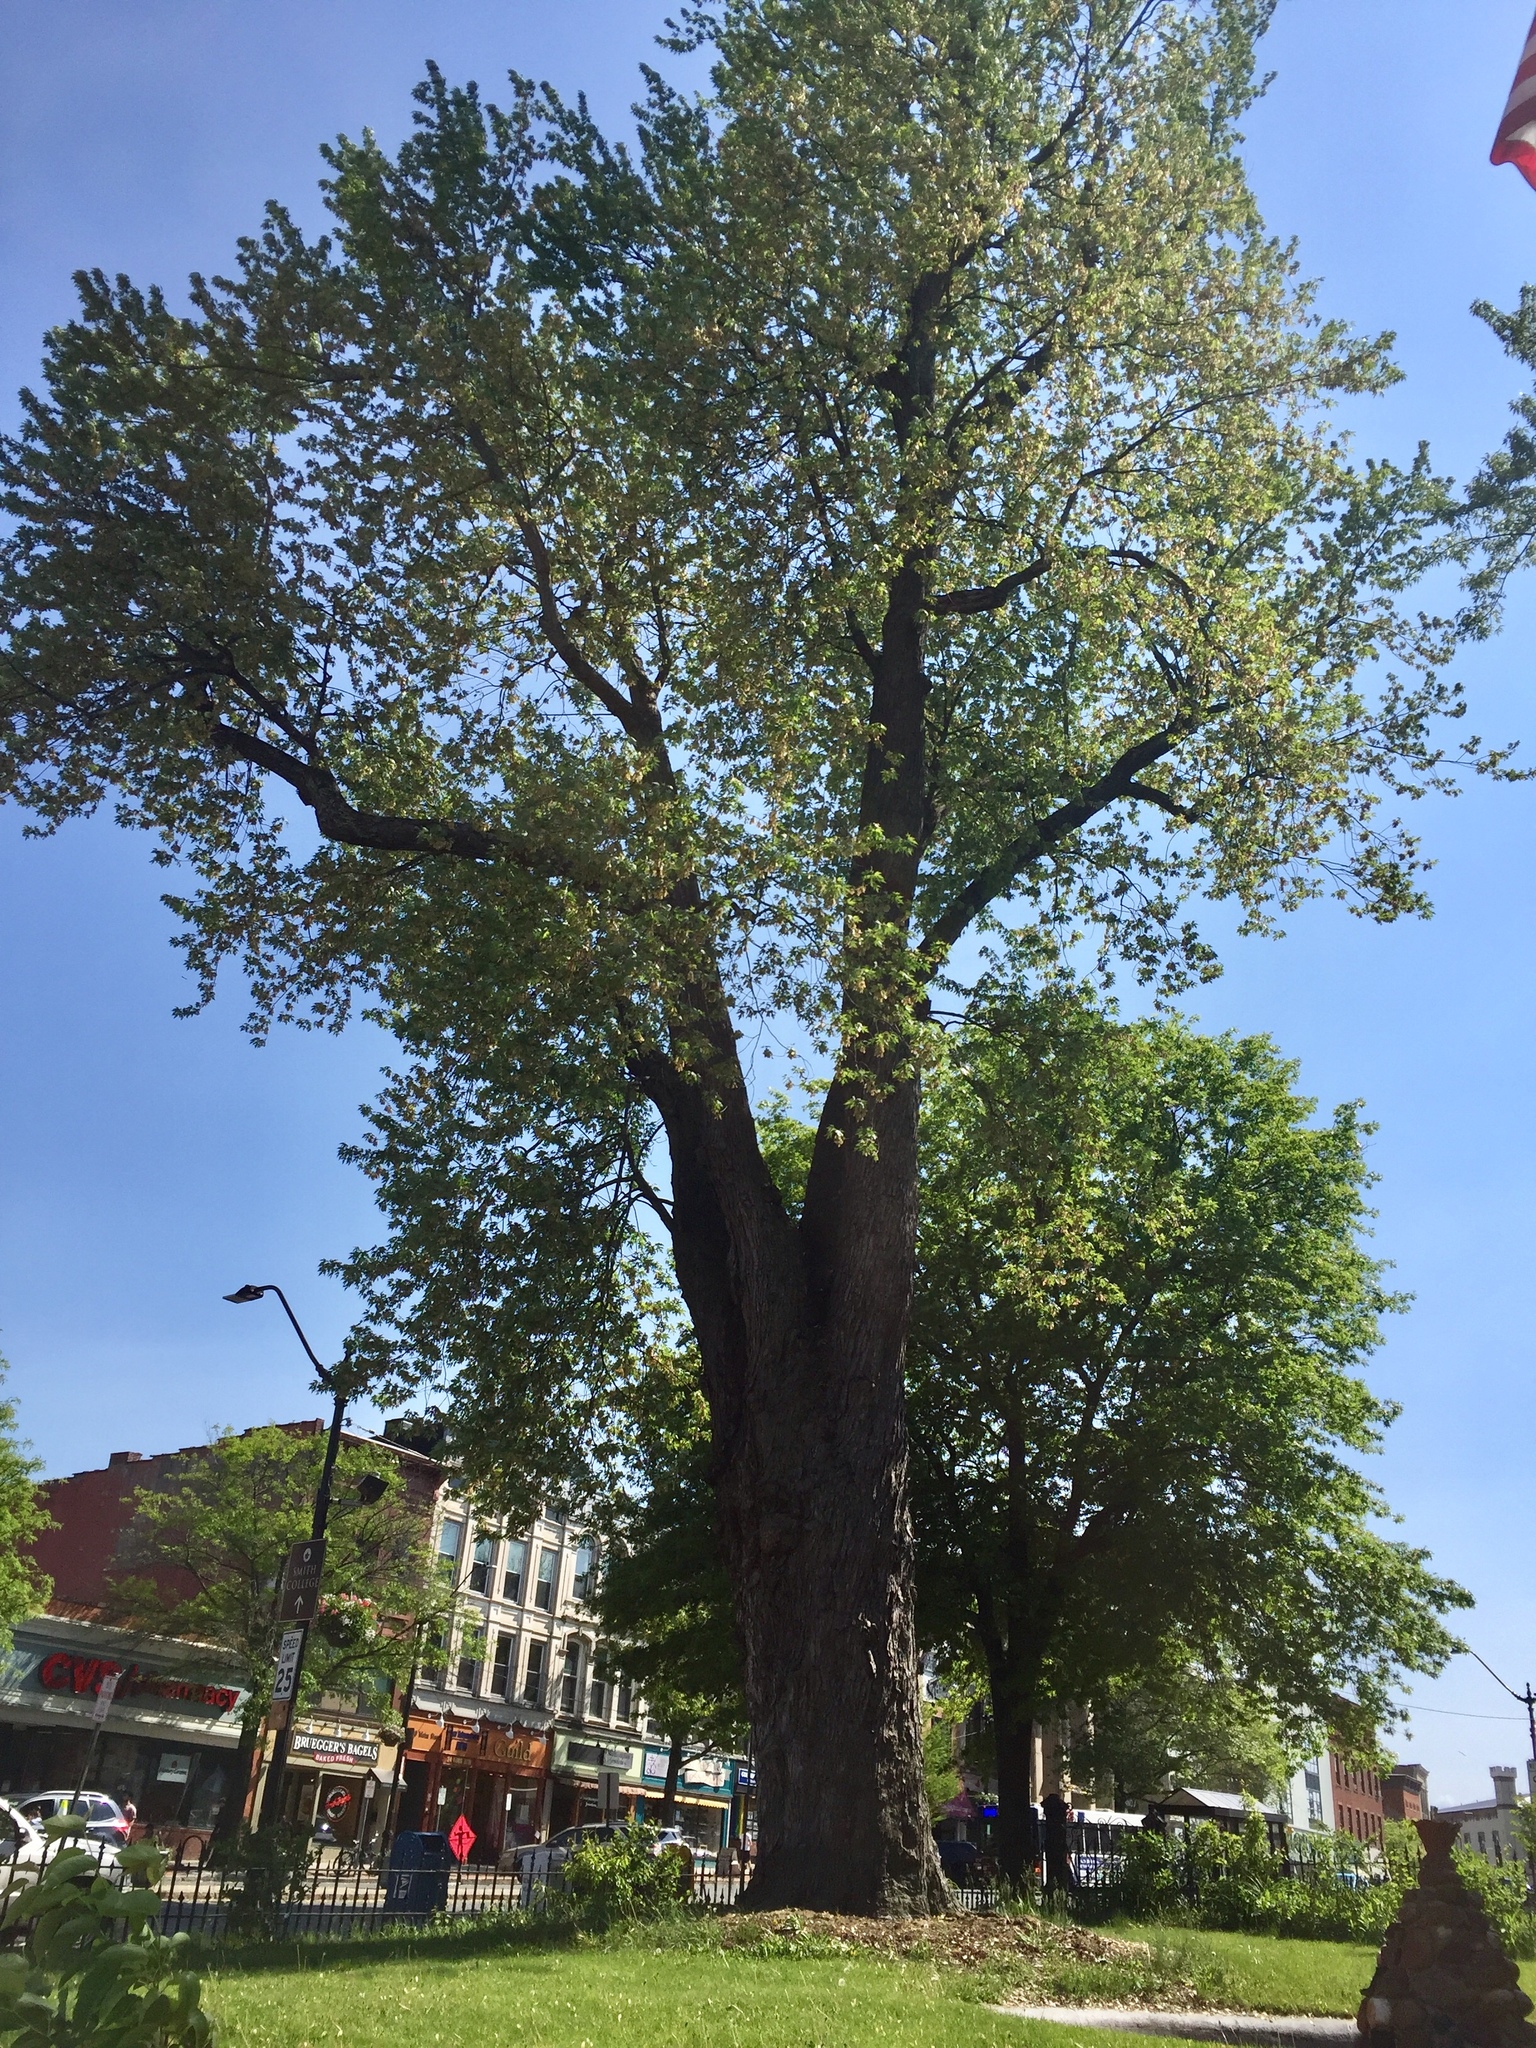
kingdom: Plantae
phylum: Tracheophyta
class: Magnoliopsida
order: Sapindales
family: Sapindaceae
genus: Acer
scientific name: Acer saccharinum
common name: Silver maple
